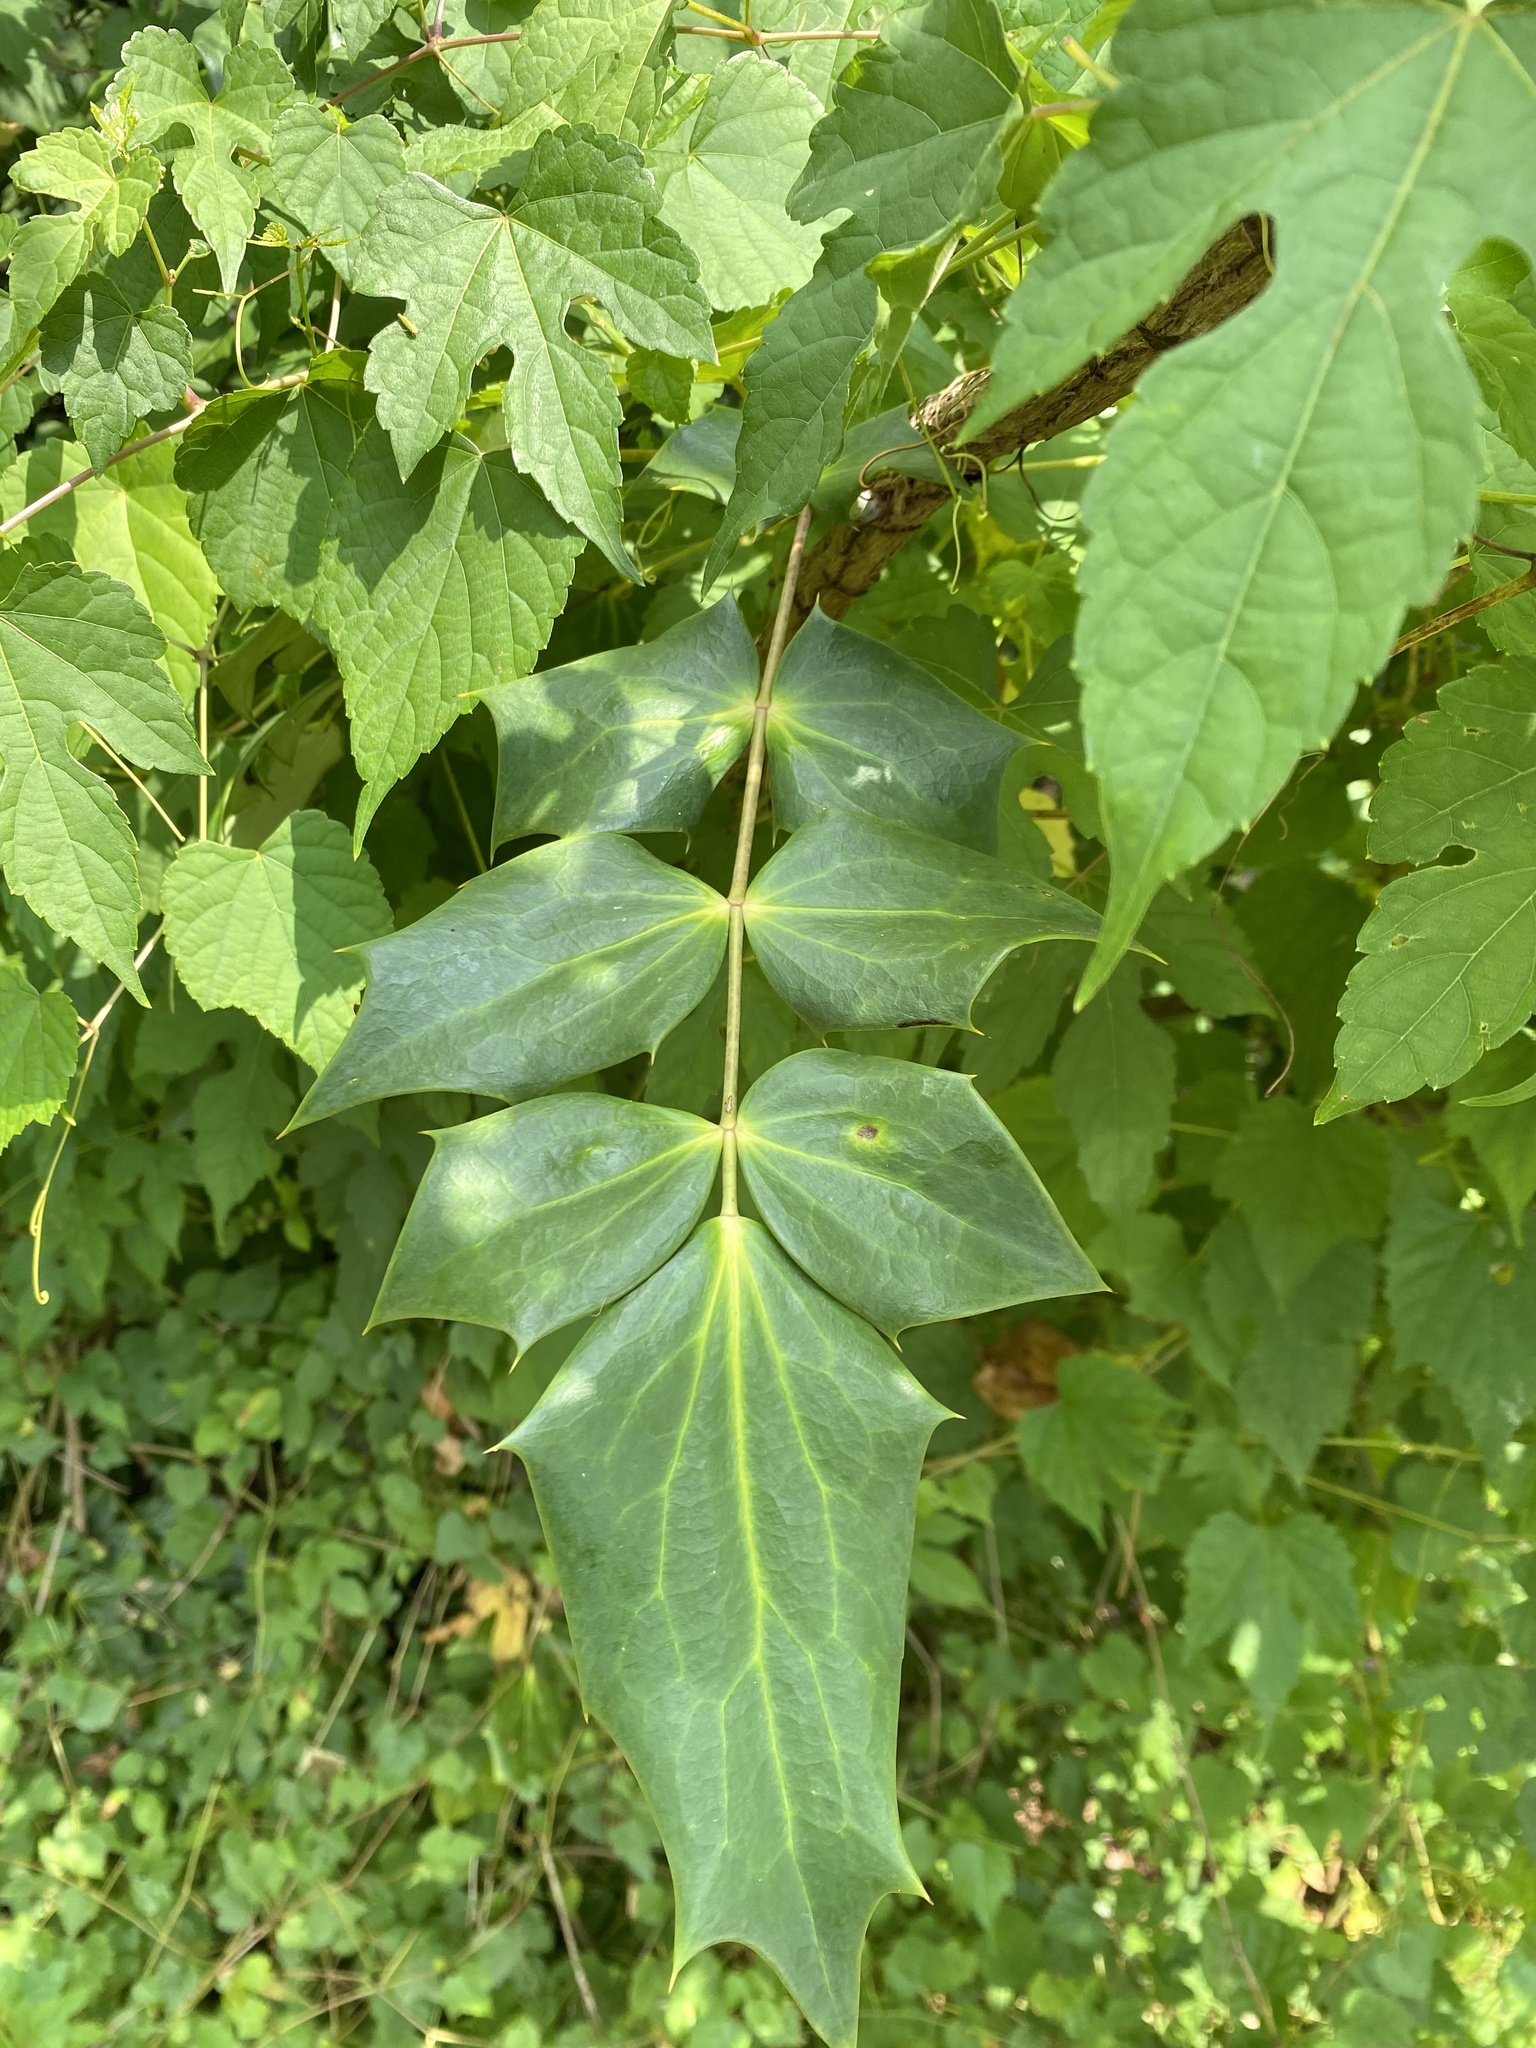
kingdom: Plantae
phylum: Tracheophyta
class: Magnoliopsida
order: Ranunculales
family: Berberidaceae
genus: Mahonia
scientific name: Mahonia bealei
